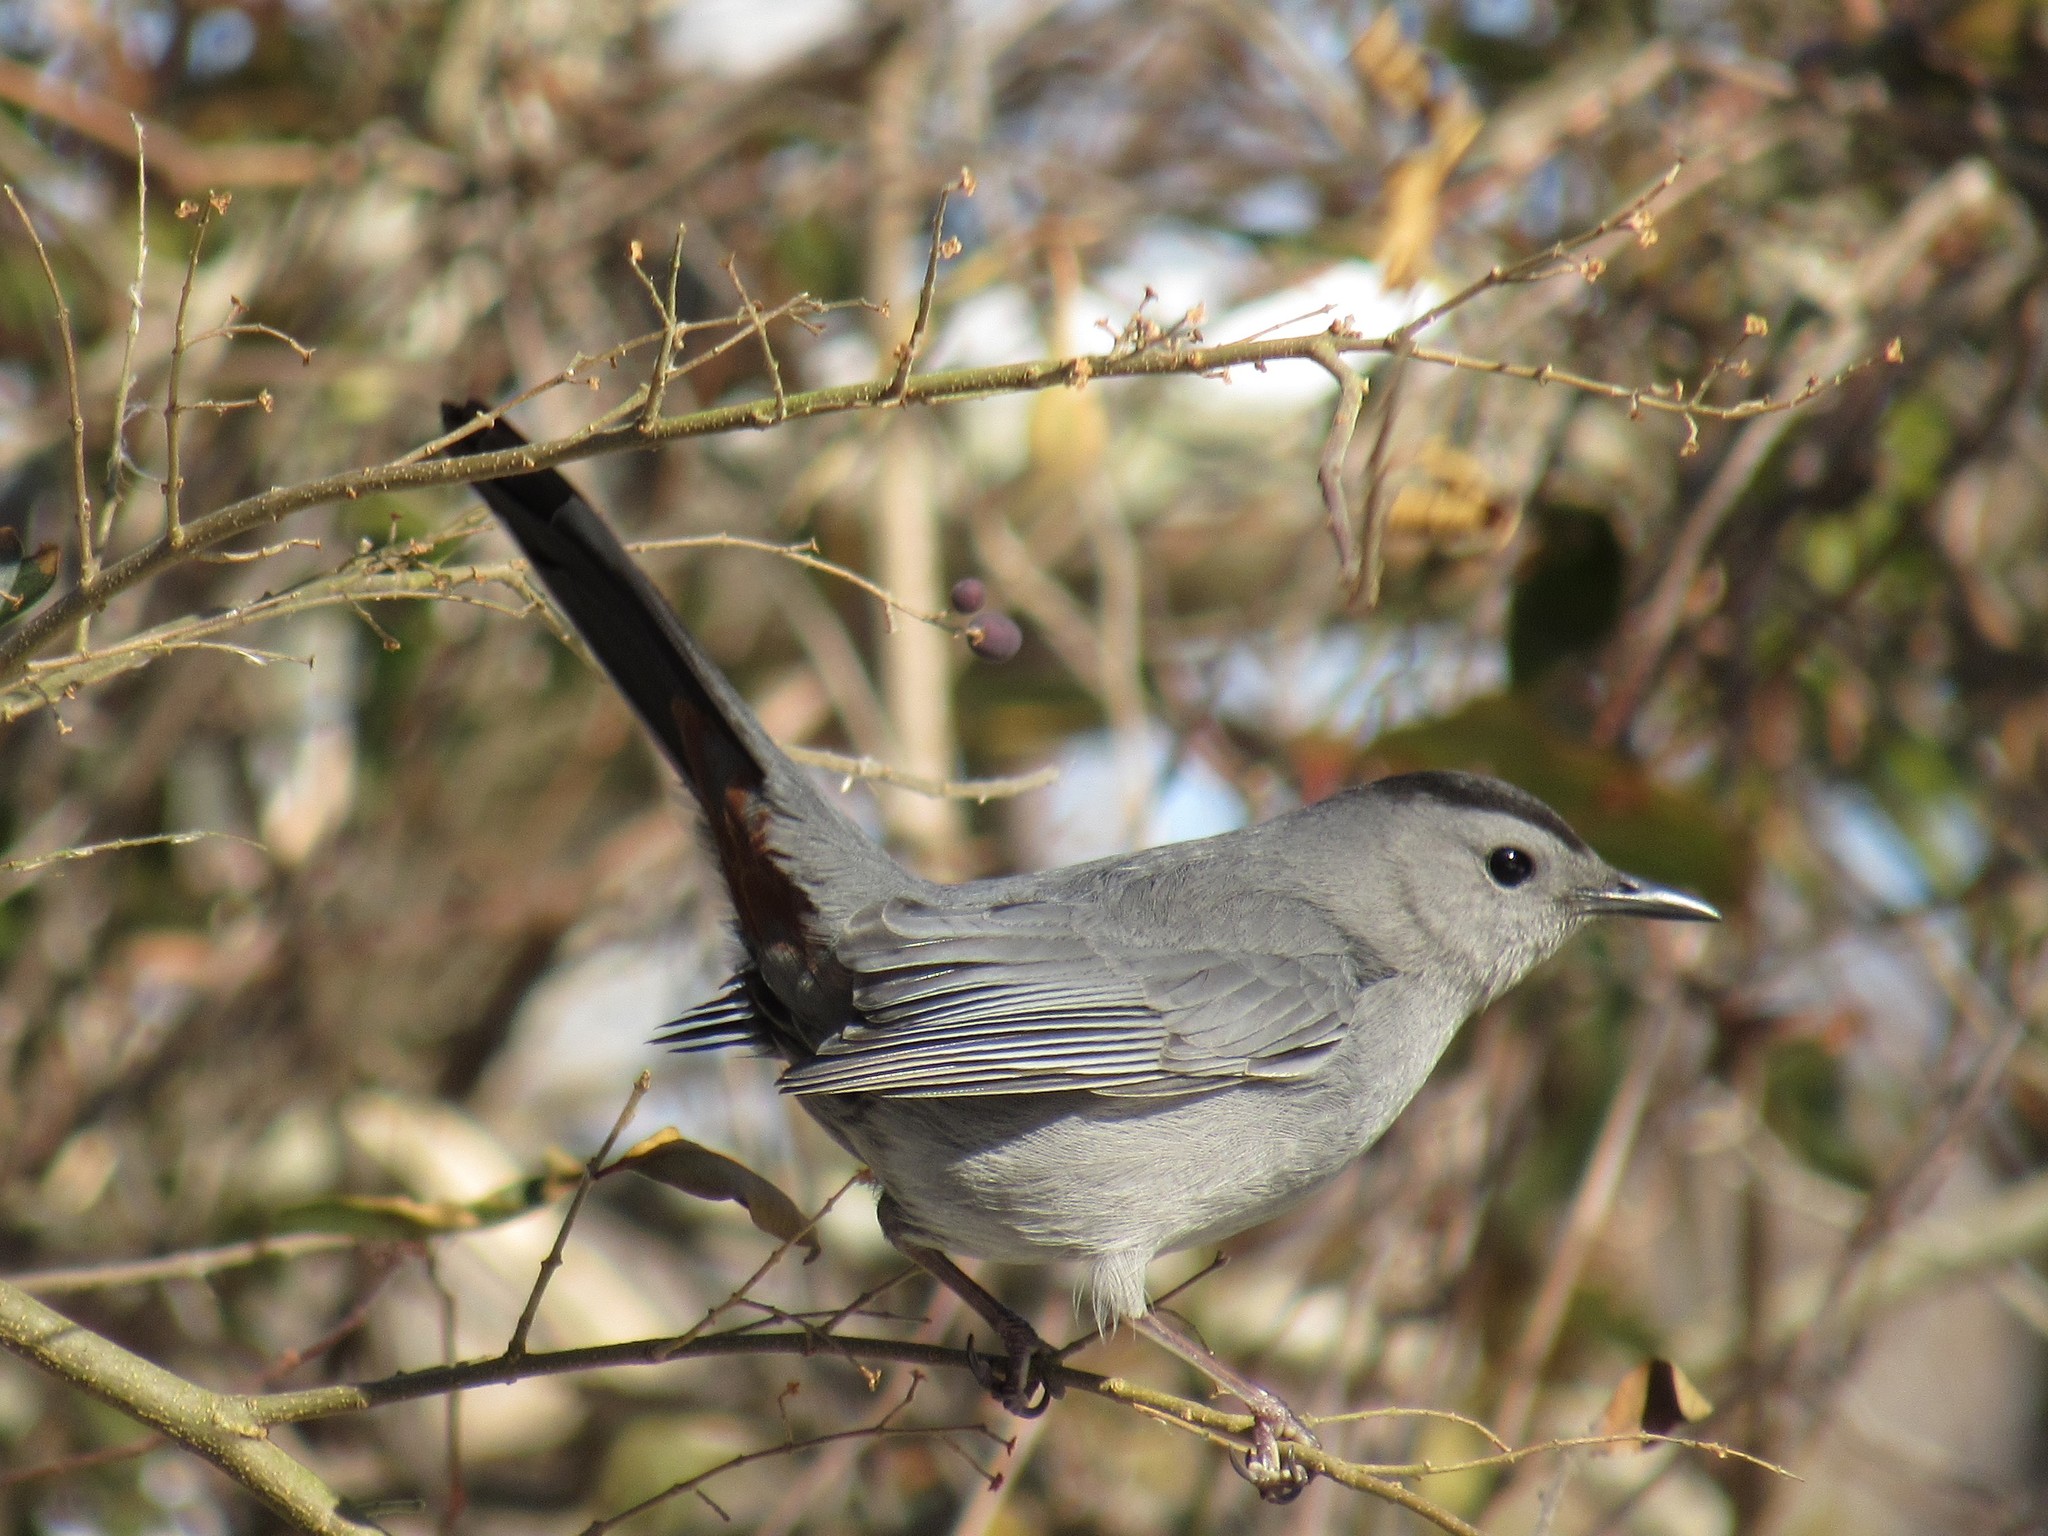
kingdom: Animalia
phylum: Chordata
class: Aves
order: Passeriformes
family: Mimidae
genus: Dumetella
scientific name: Dumetella carolinensis
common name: Gray catbird
